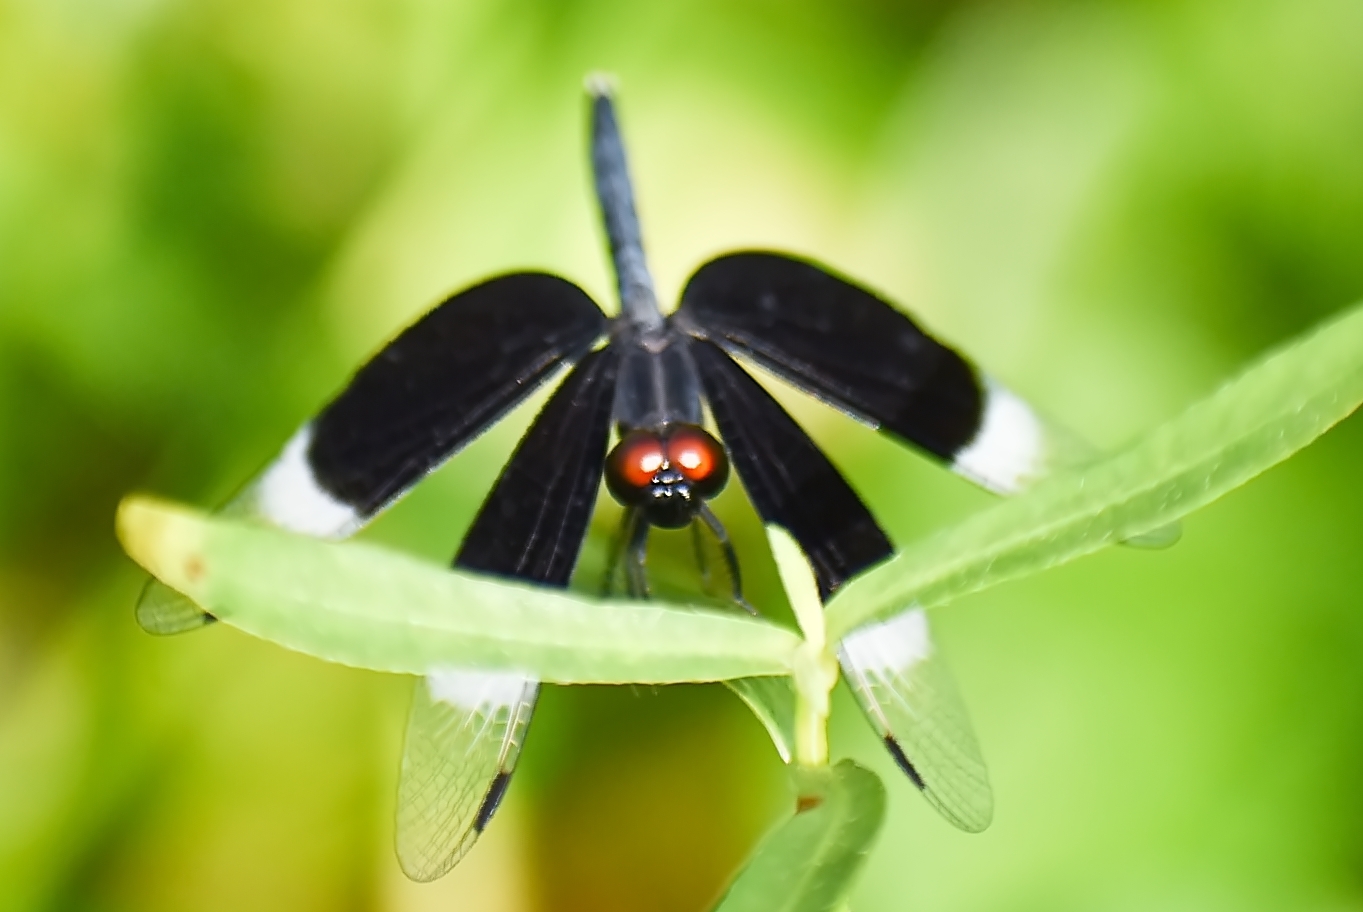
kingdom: Animalia
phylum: Arthropoda
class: Insecta
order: Odonata
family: Libellulidae
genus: Neurothemis
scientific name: Neurothemis tullia
